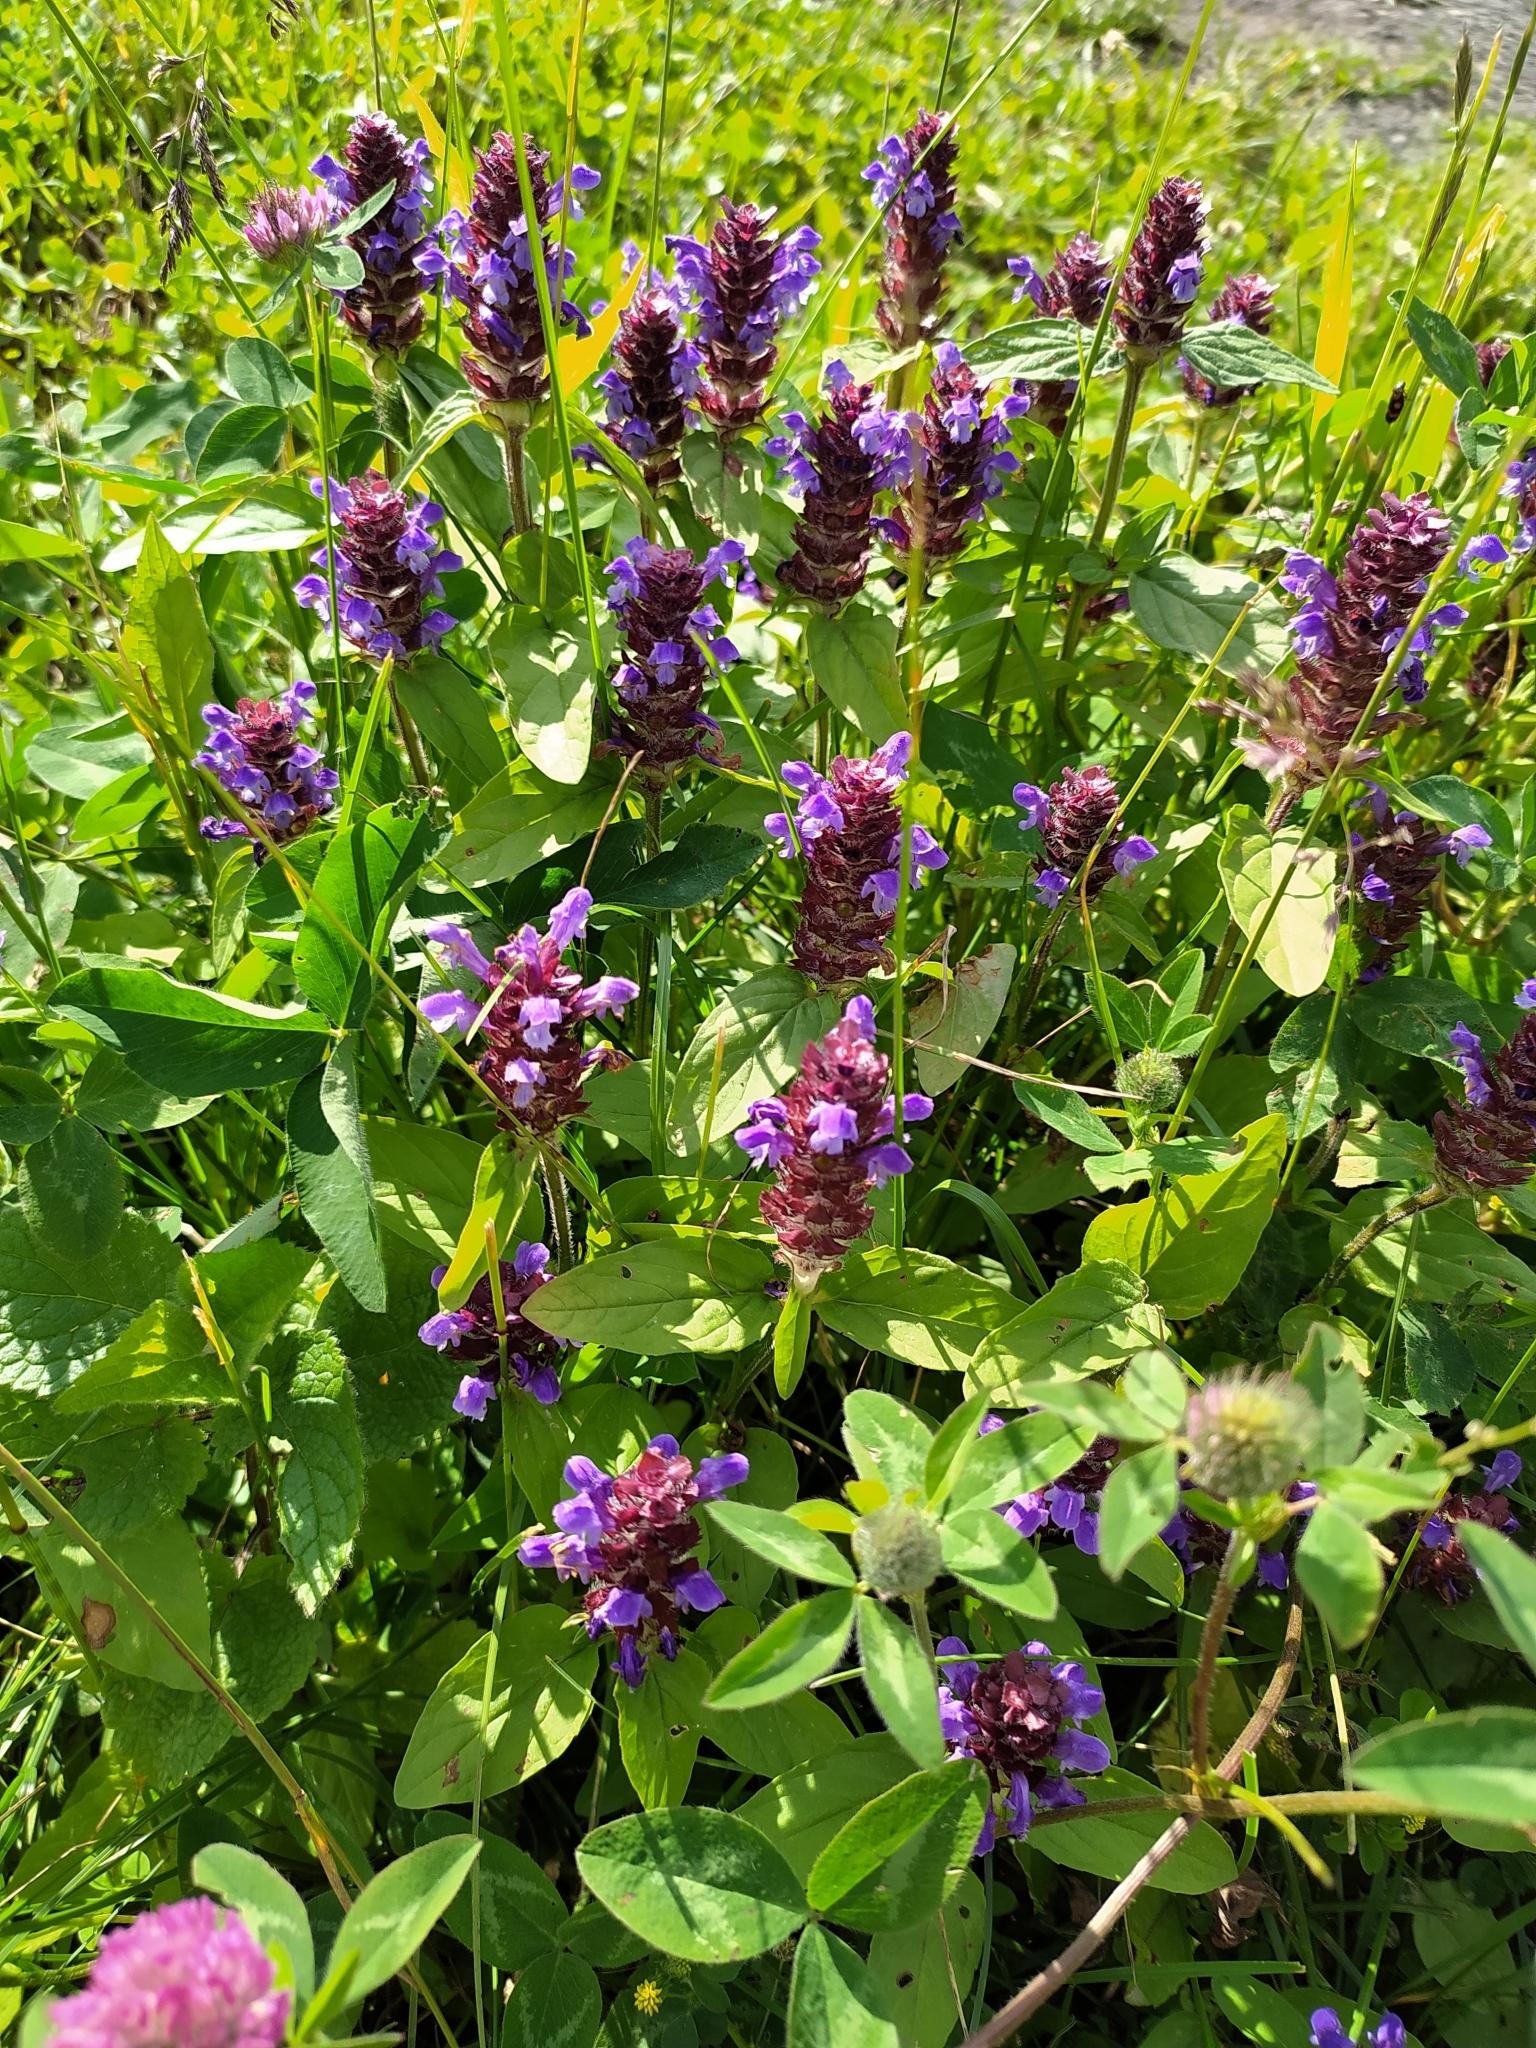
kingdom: Plantae
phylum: Tracheophyta
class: Magnoliopsida
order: Lamiales
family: Lamiaceae
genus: Prunella
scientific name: Prunella vulgaris
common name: Heal-all
